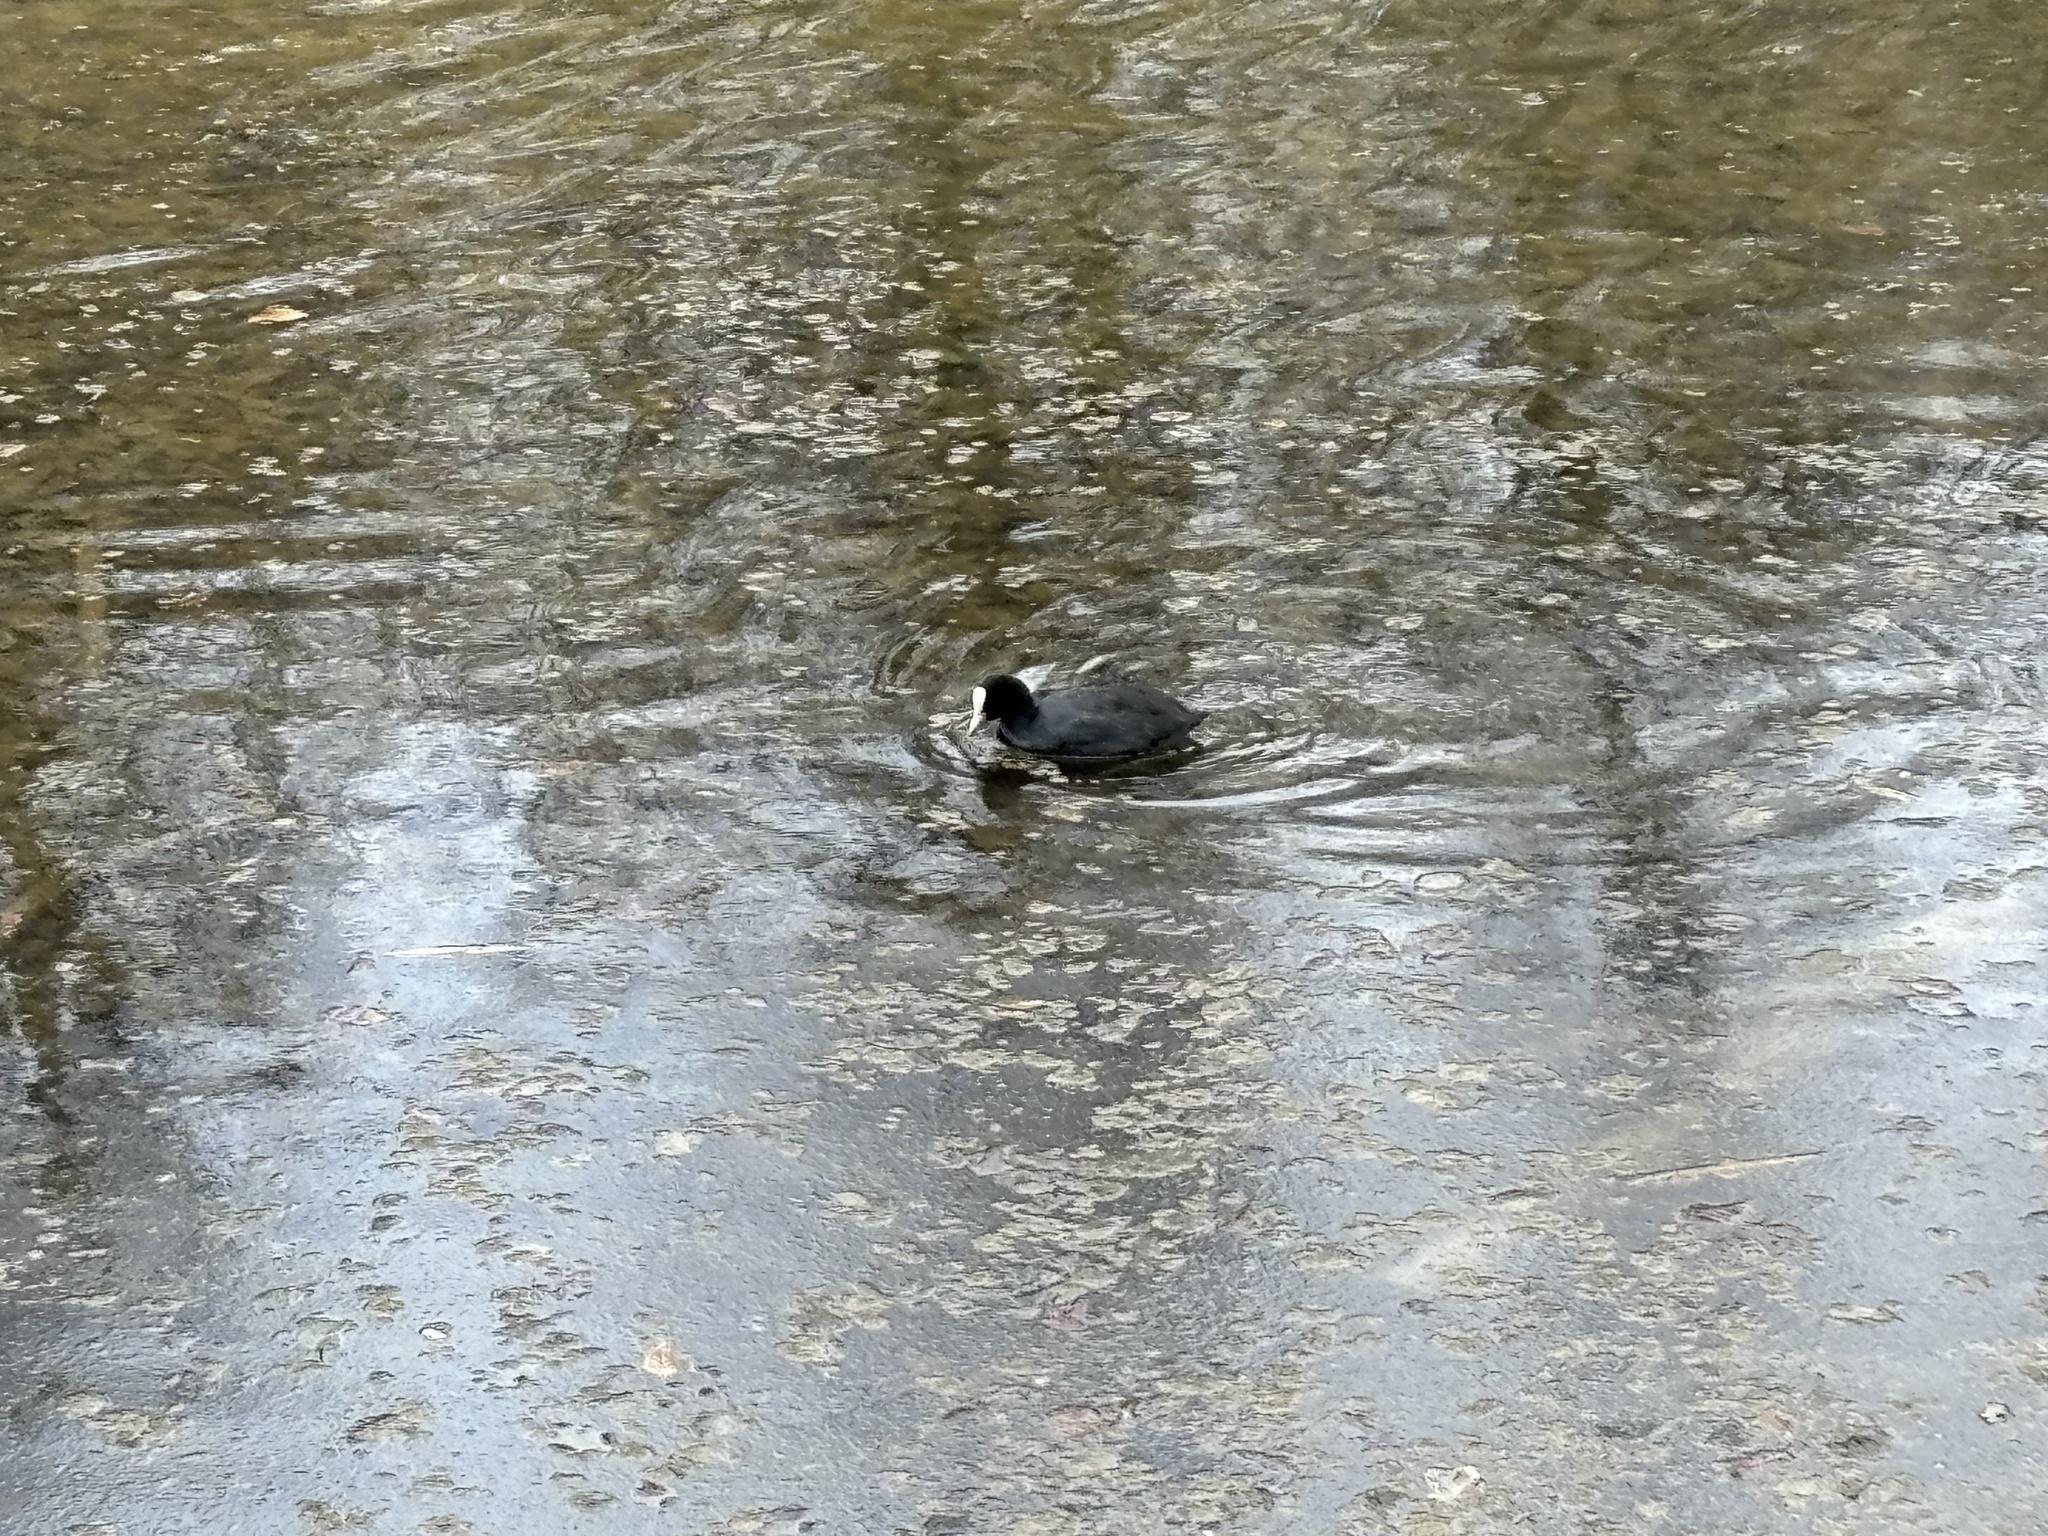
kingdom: Animalia
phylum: Chordata
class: Aves
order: Gruiformes
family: Rallidae
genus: Fulica
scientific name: Fulica atra
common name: Eurasian coot
